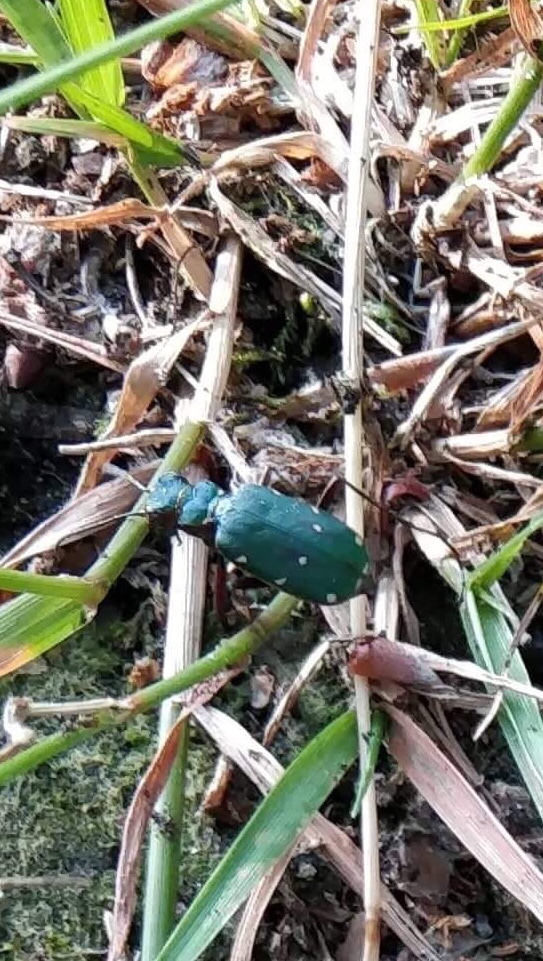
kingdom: Animalia
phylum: Arthropoda
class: Insecta
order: Coleoptera
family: Carabidae
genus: Cicindela
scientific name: Cicindela campestris
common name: Common tiger beetle
